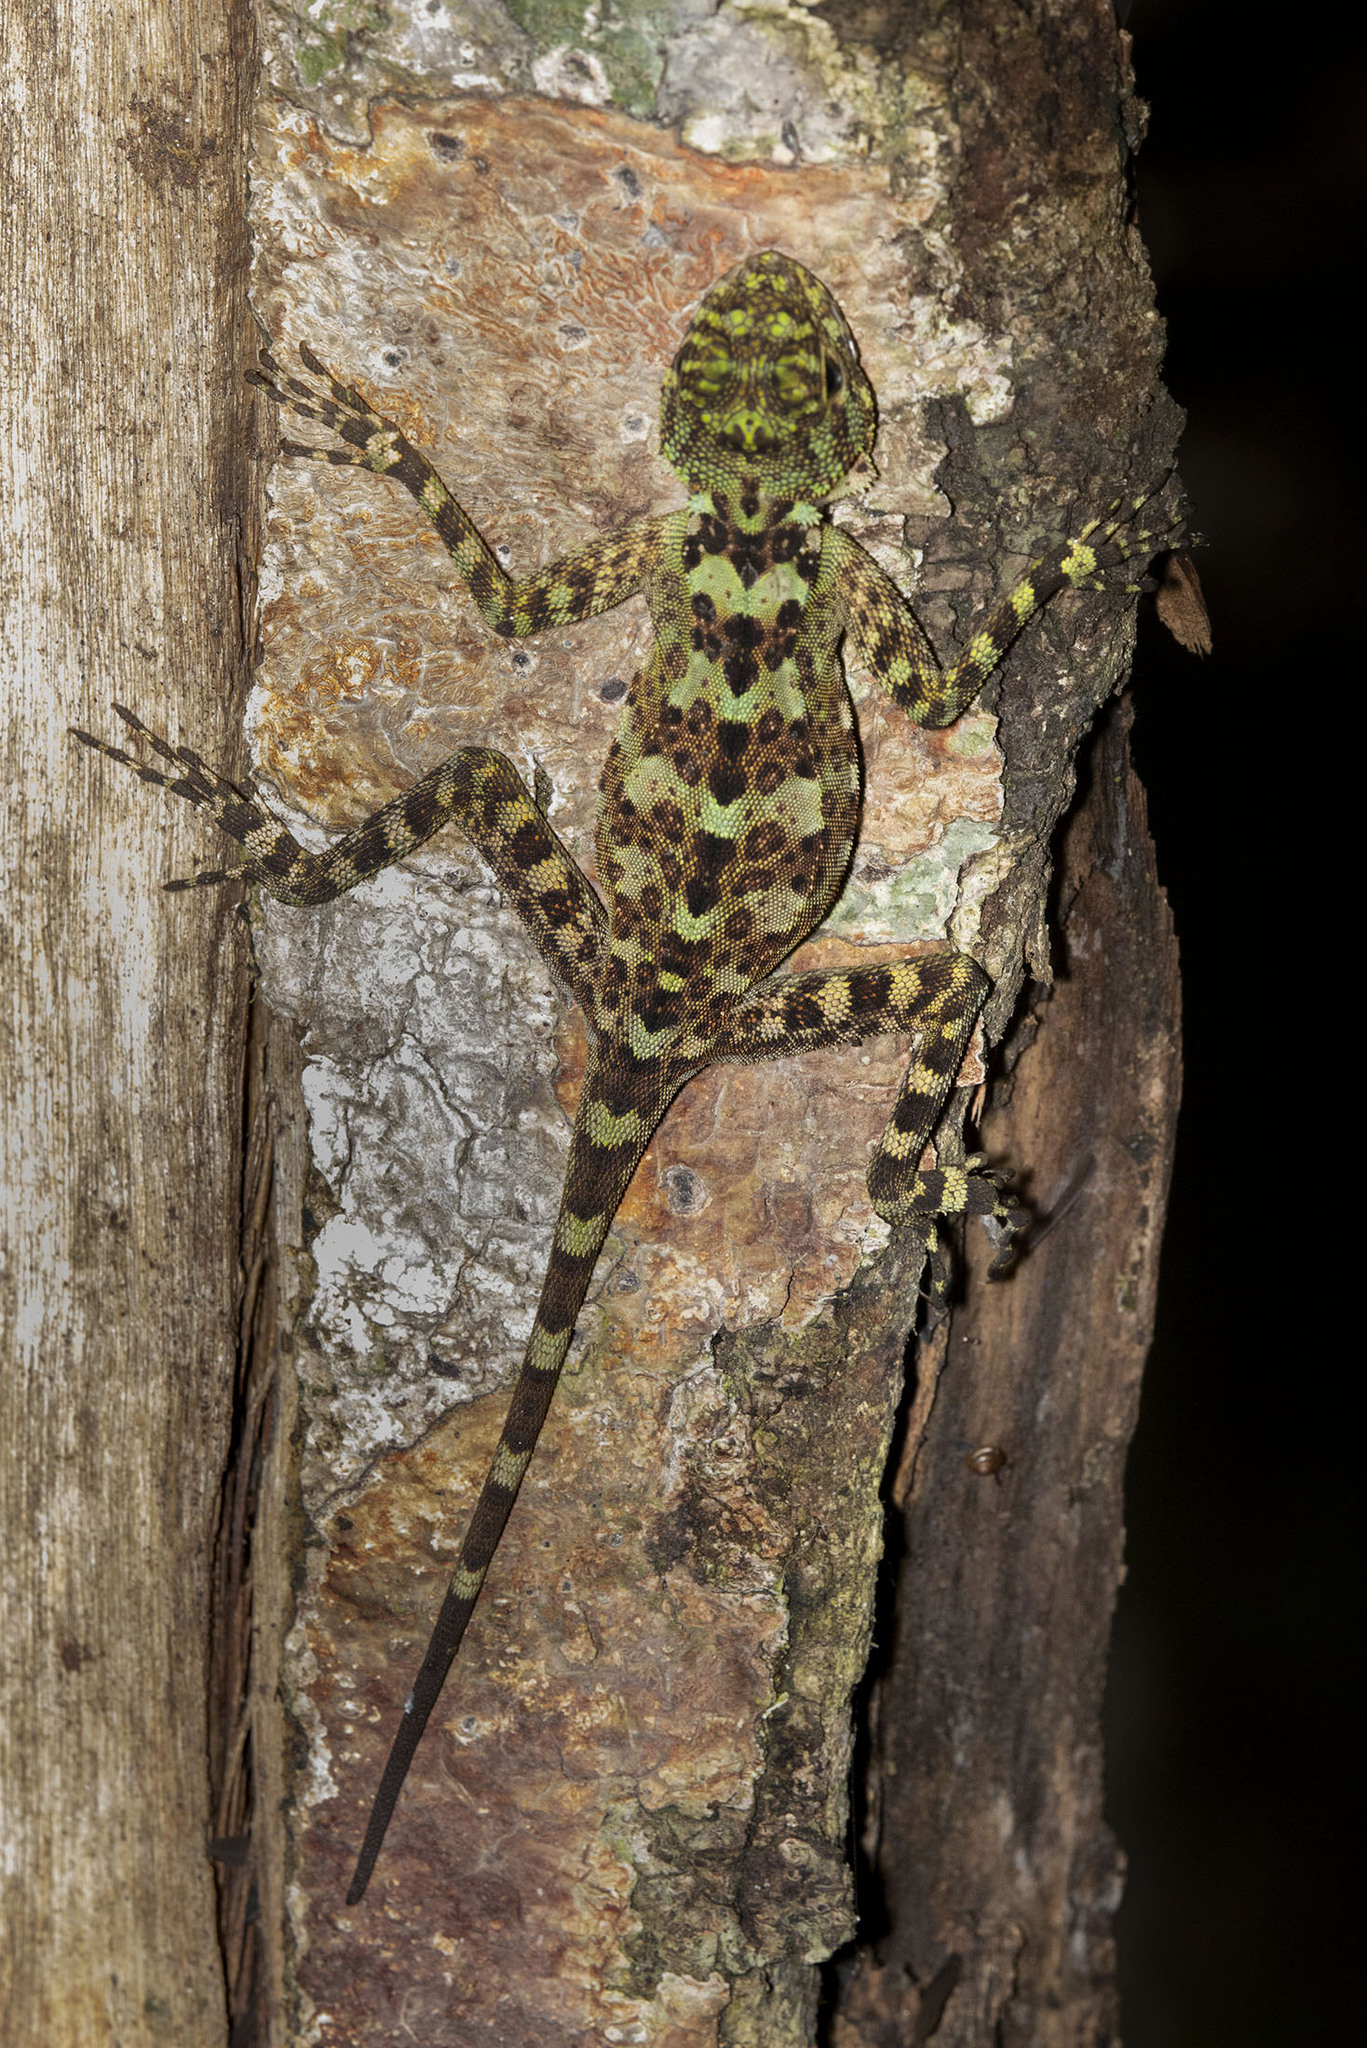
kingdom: Animalia
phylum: Chordata
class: Squamata
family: Tropiduridae
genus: Plica
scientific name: Plica plica
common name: Tree runner
